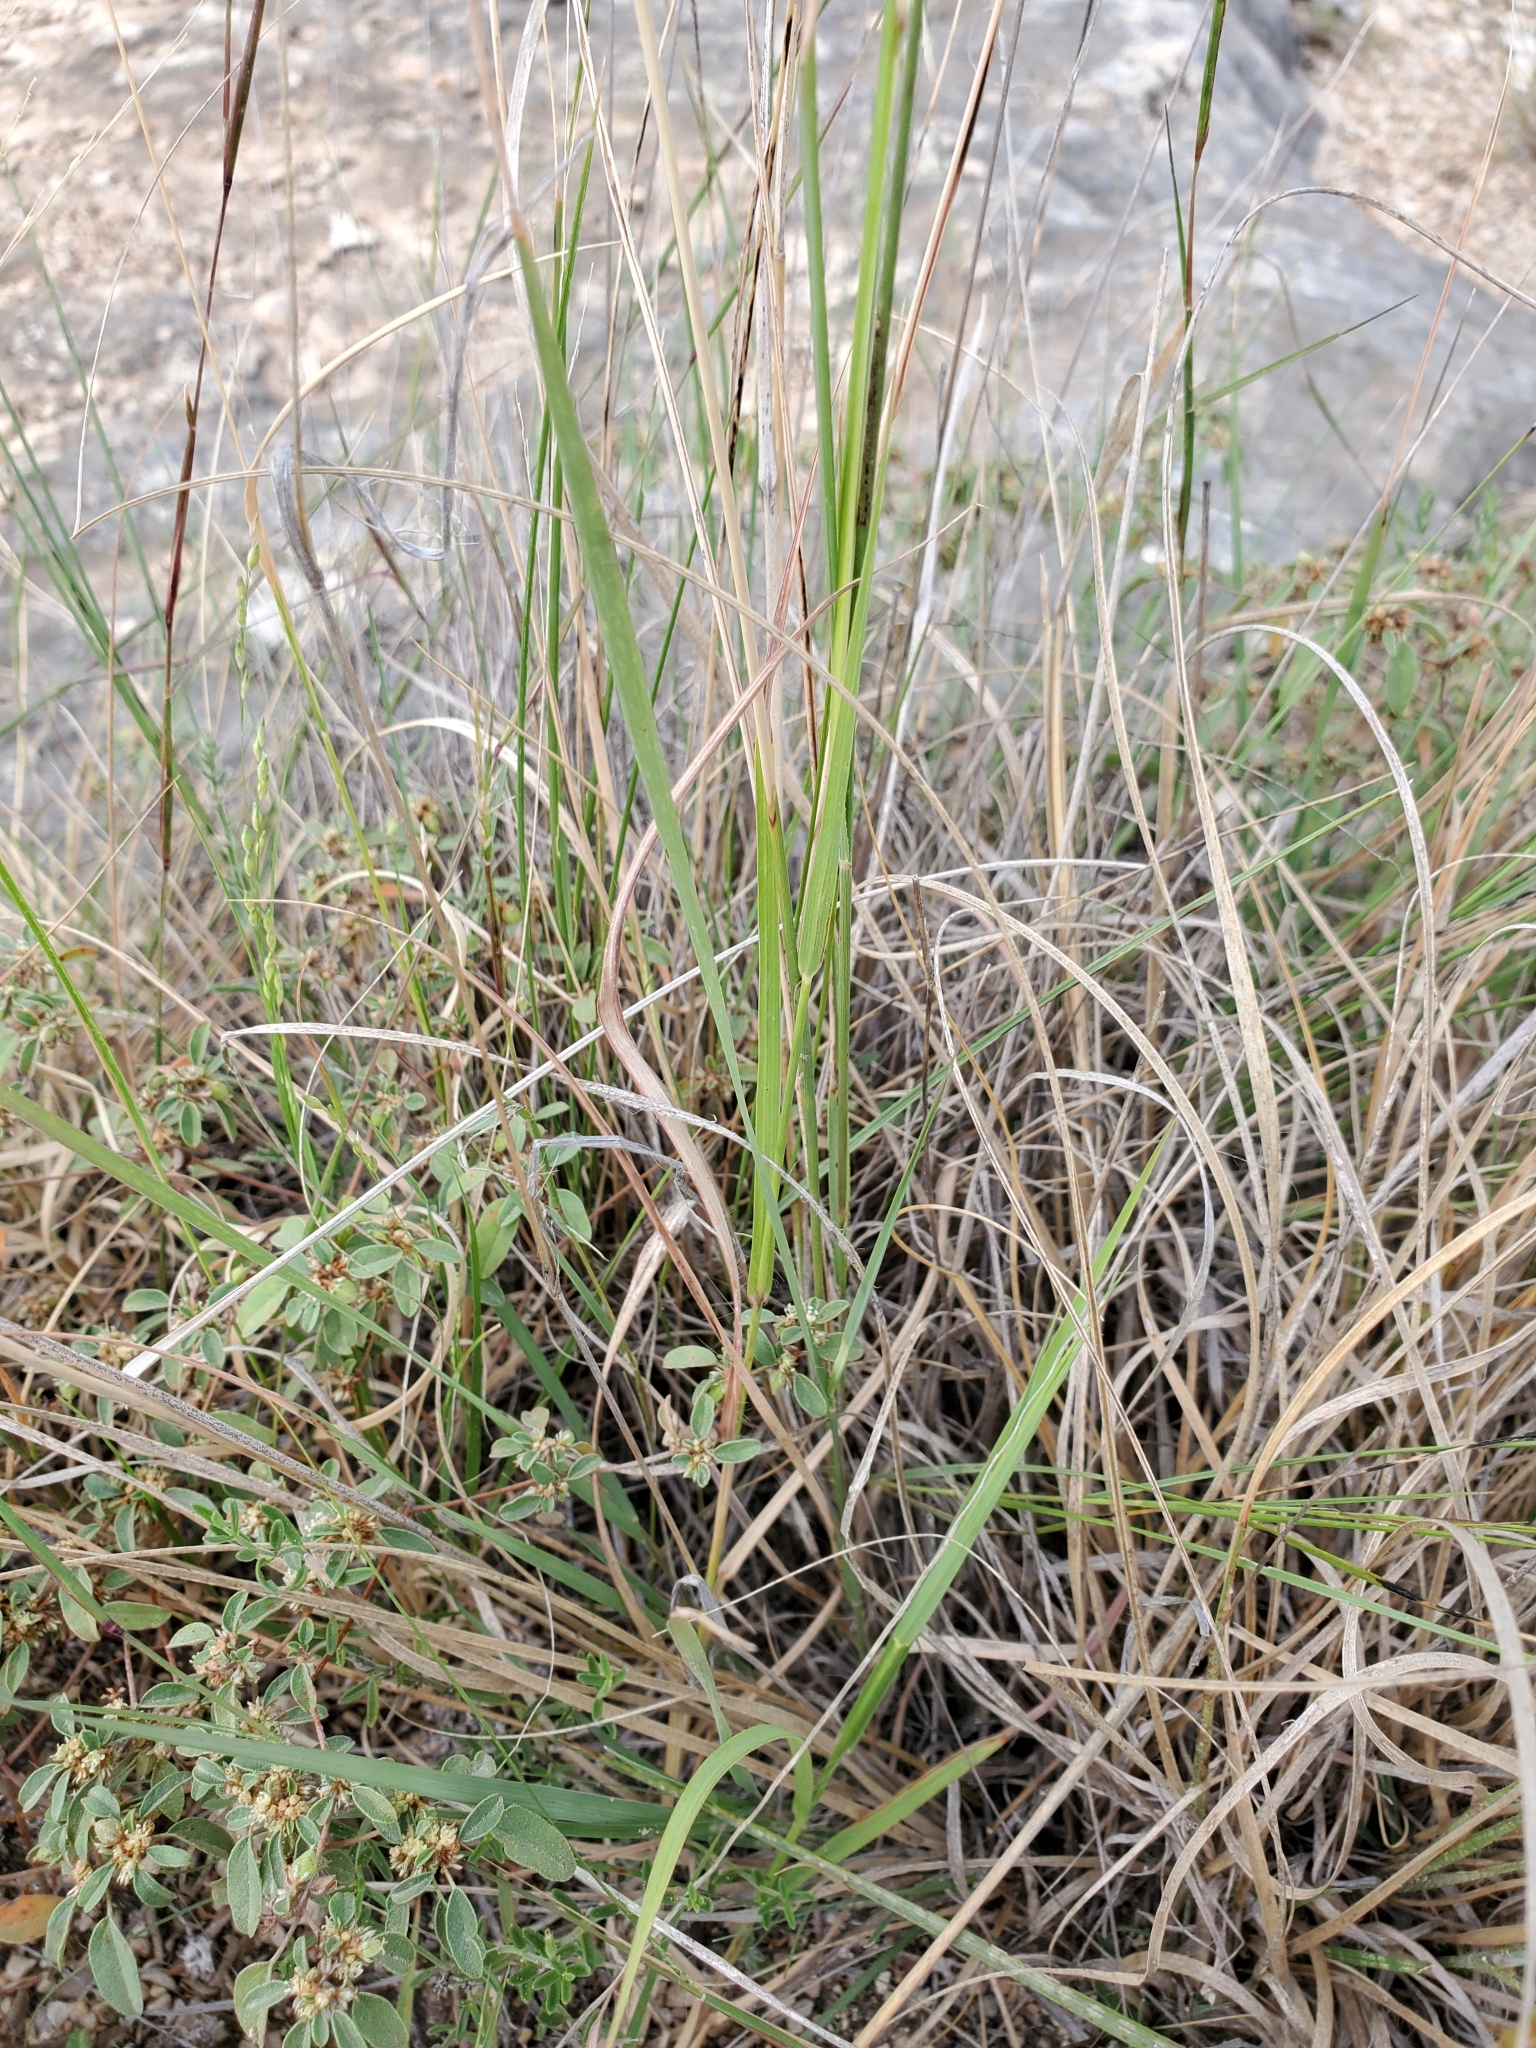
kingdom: Plantae
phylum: Tracheophyta
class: Liliopsida
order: Poales
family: Poaceae
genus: Bouteloua
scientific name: Bouteloua curtipendula
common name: Side-oats grama
